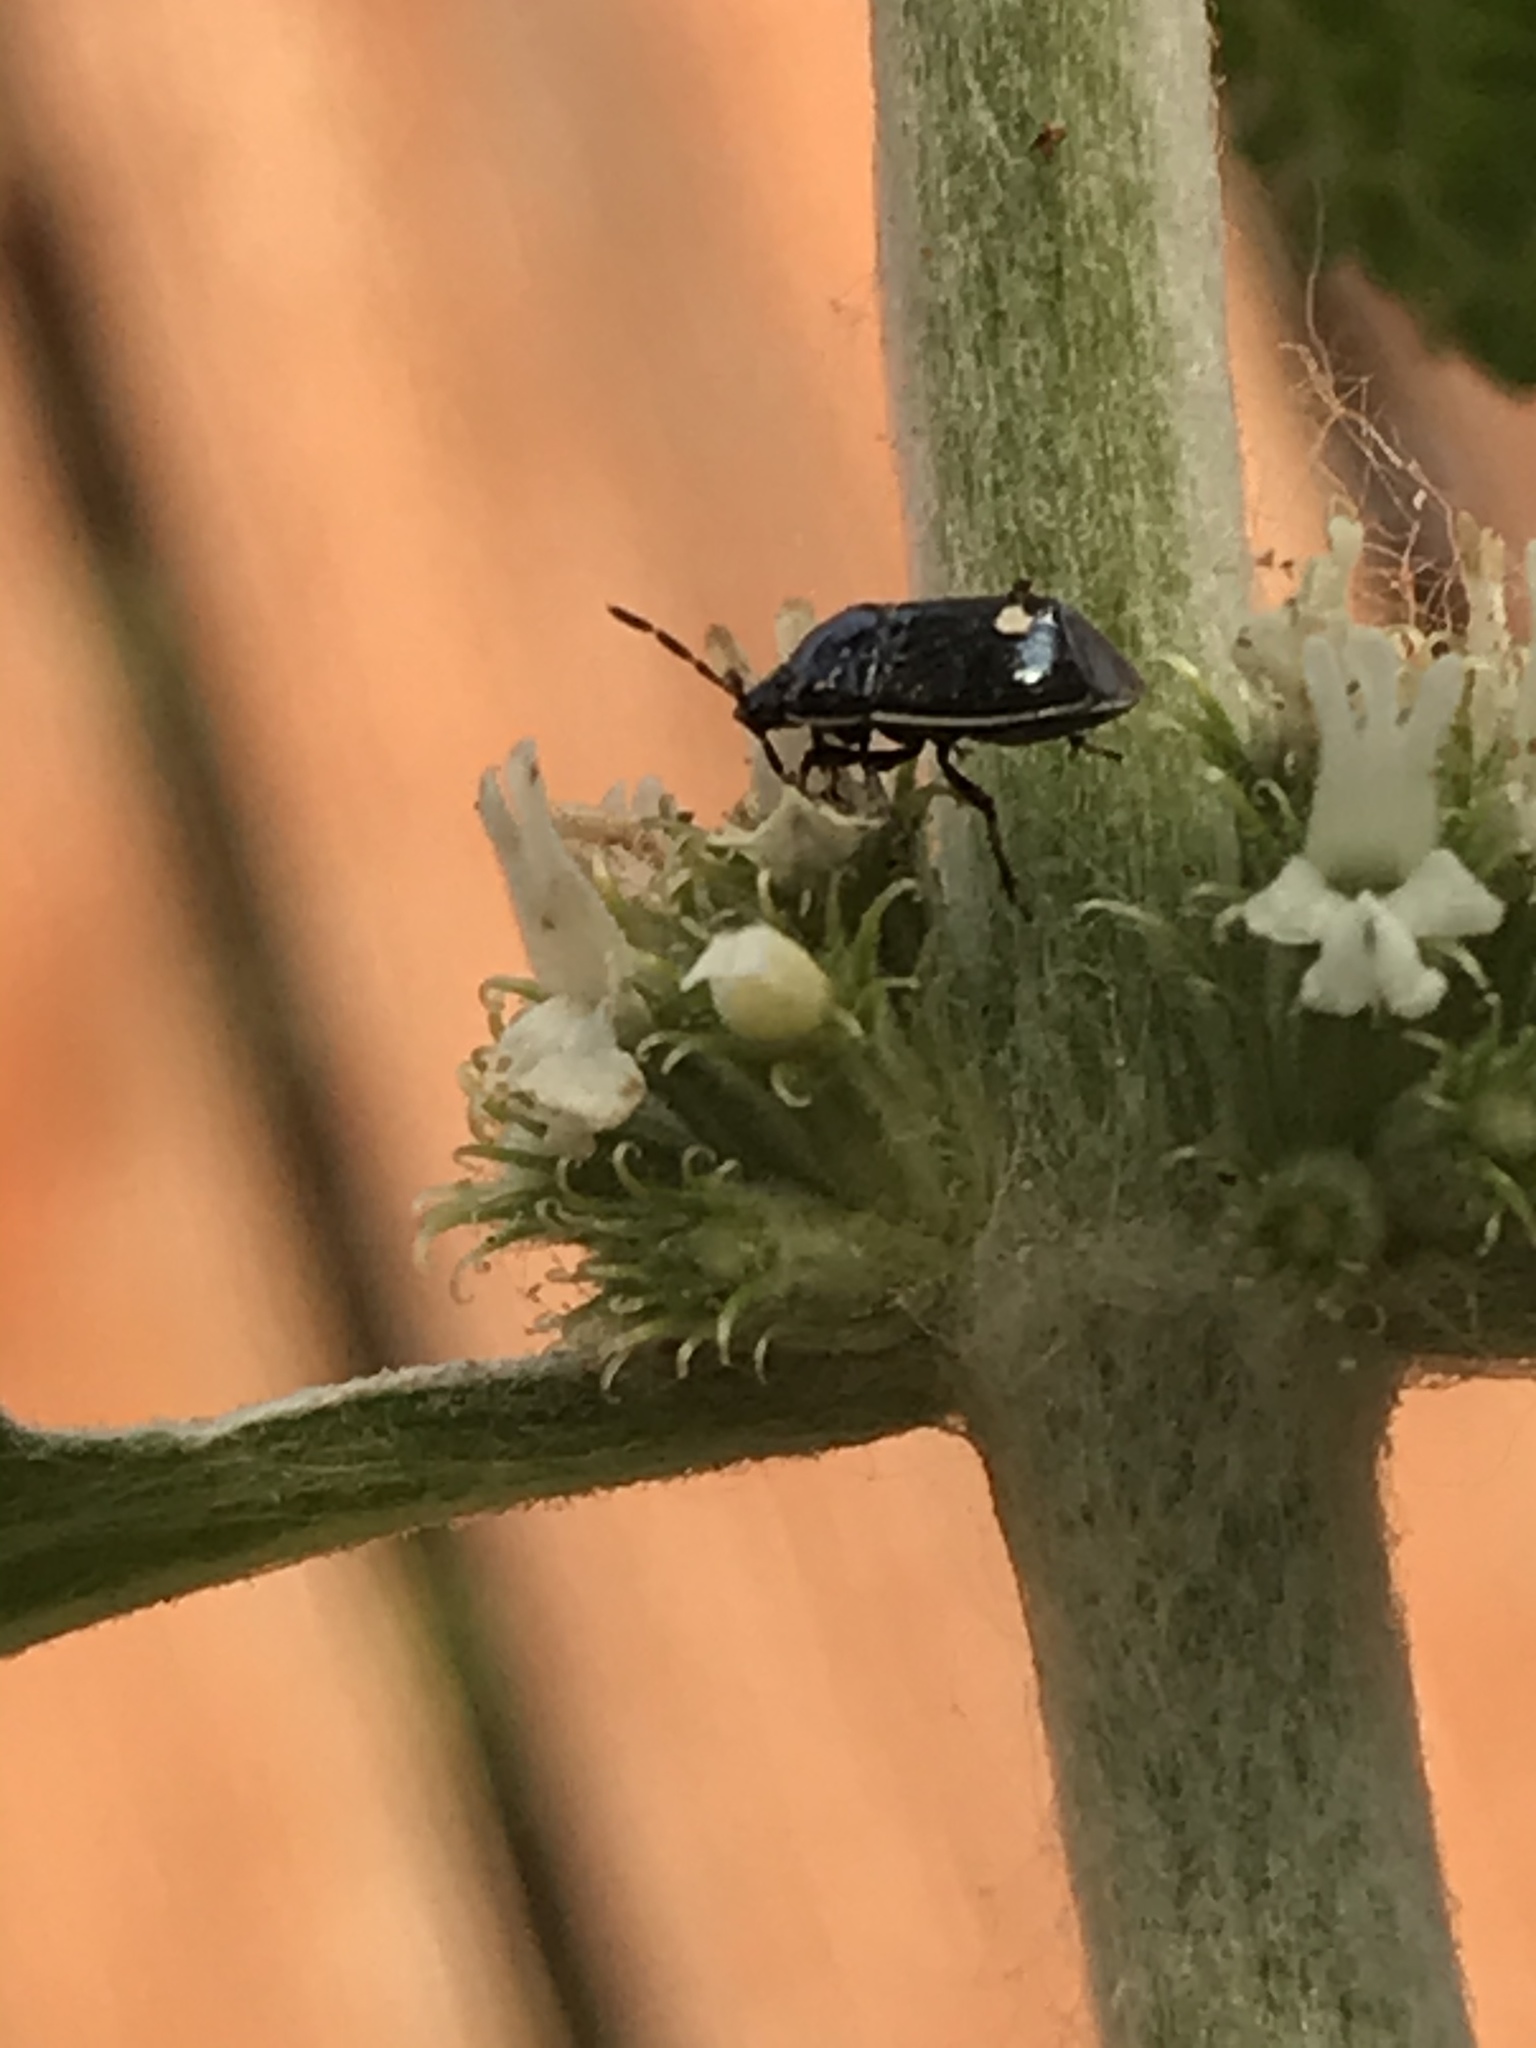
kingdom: Animalia
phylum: Arthropoda
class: Insecta
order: Hemiptera
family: Cydnidae
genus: Sehirus
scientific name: Sehirus cinctus
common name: White-margined burrower bug
